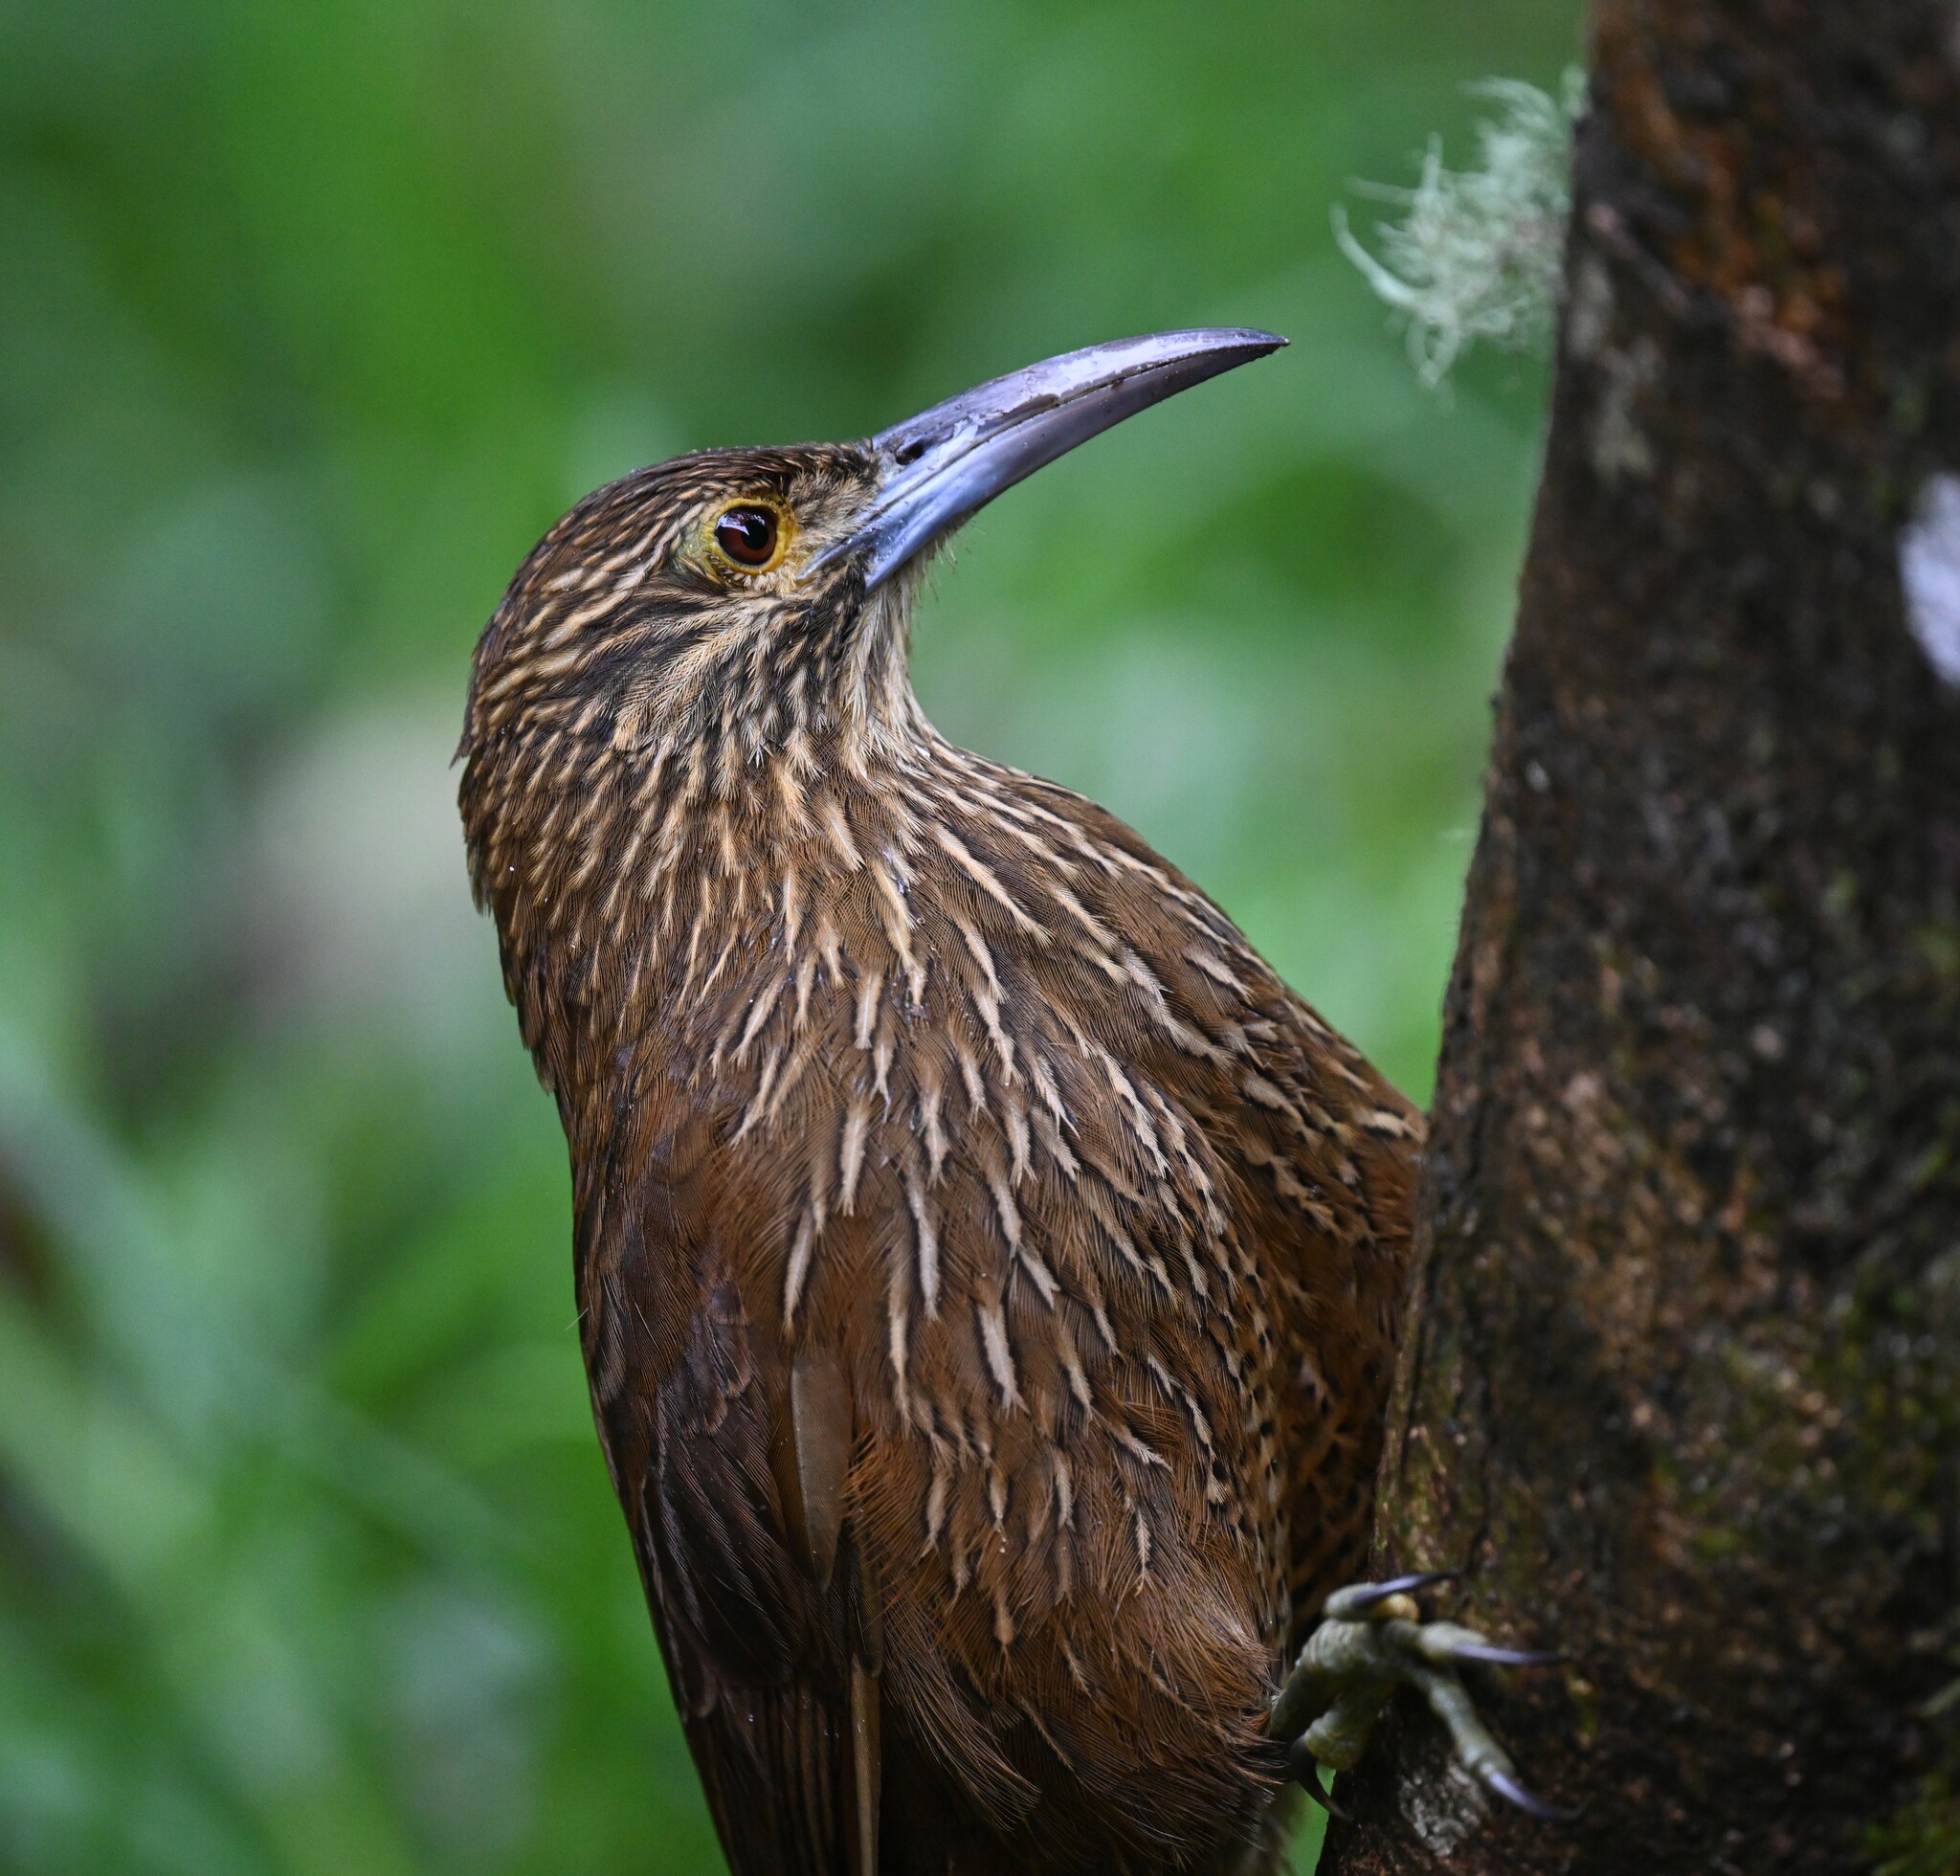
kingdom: Animalia
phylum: Chordata
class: Aves
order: Passeriformes
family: Furnariidae
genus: Xiphocolaptes
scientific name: Xiphocolaptes promeropirhynchus
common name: Strong-billed woodcreeper
